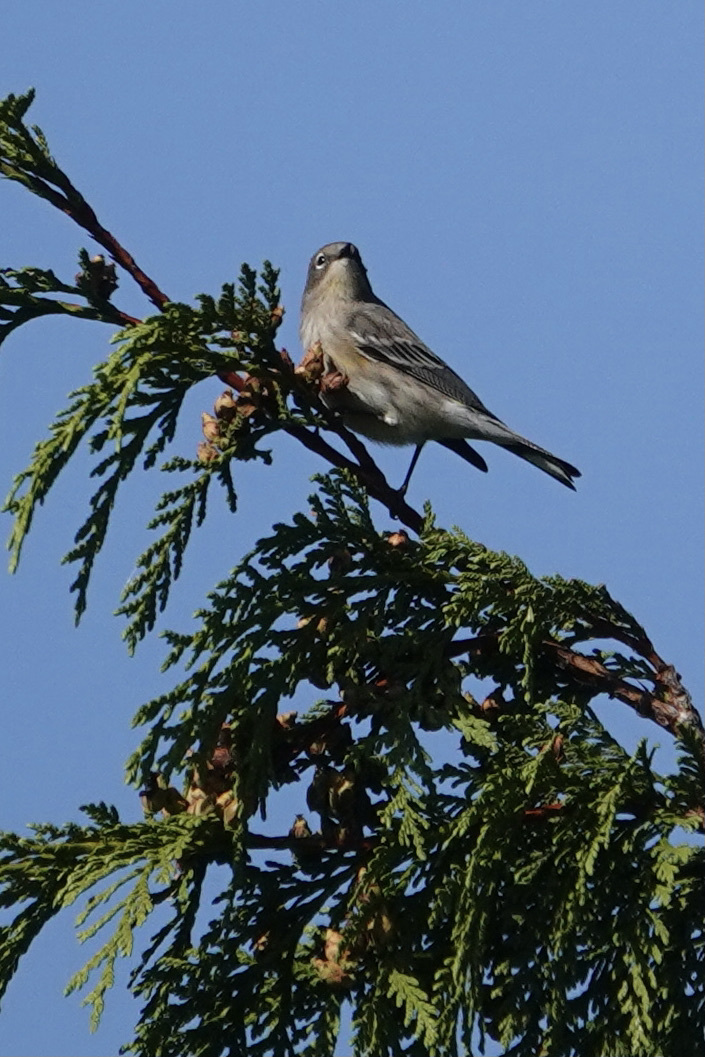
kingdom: Animalia
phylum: Chordata
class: Aves
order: Passeriformes
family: Parulidae
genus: Setophaga
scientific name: Setophaga coronata
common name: Myrtle warbler
